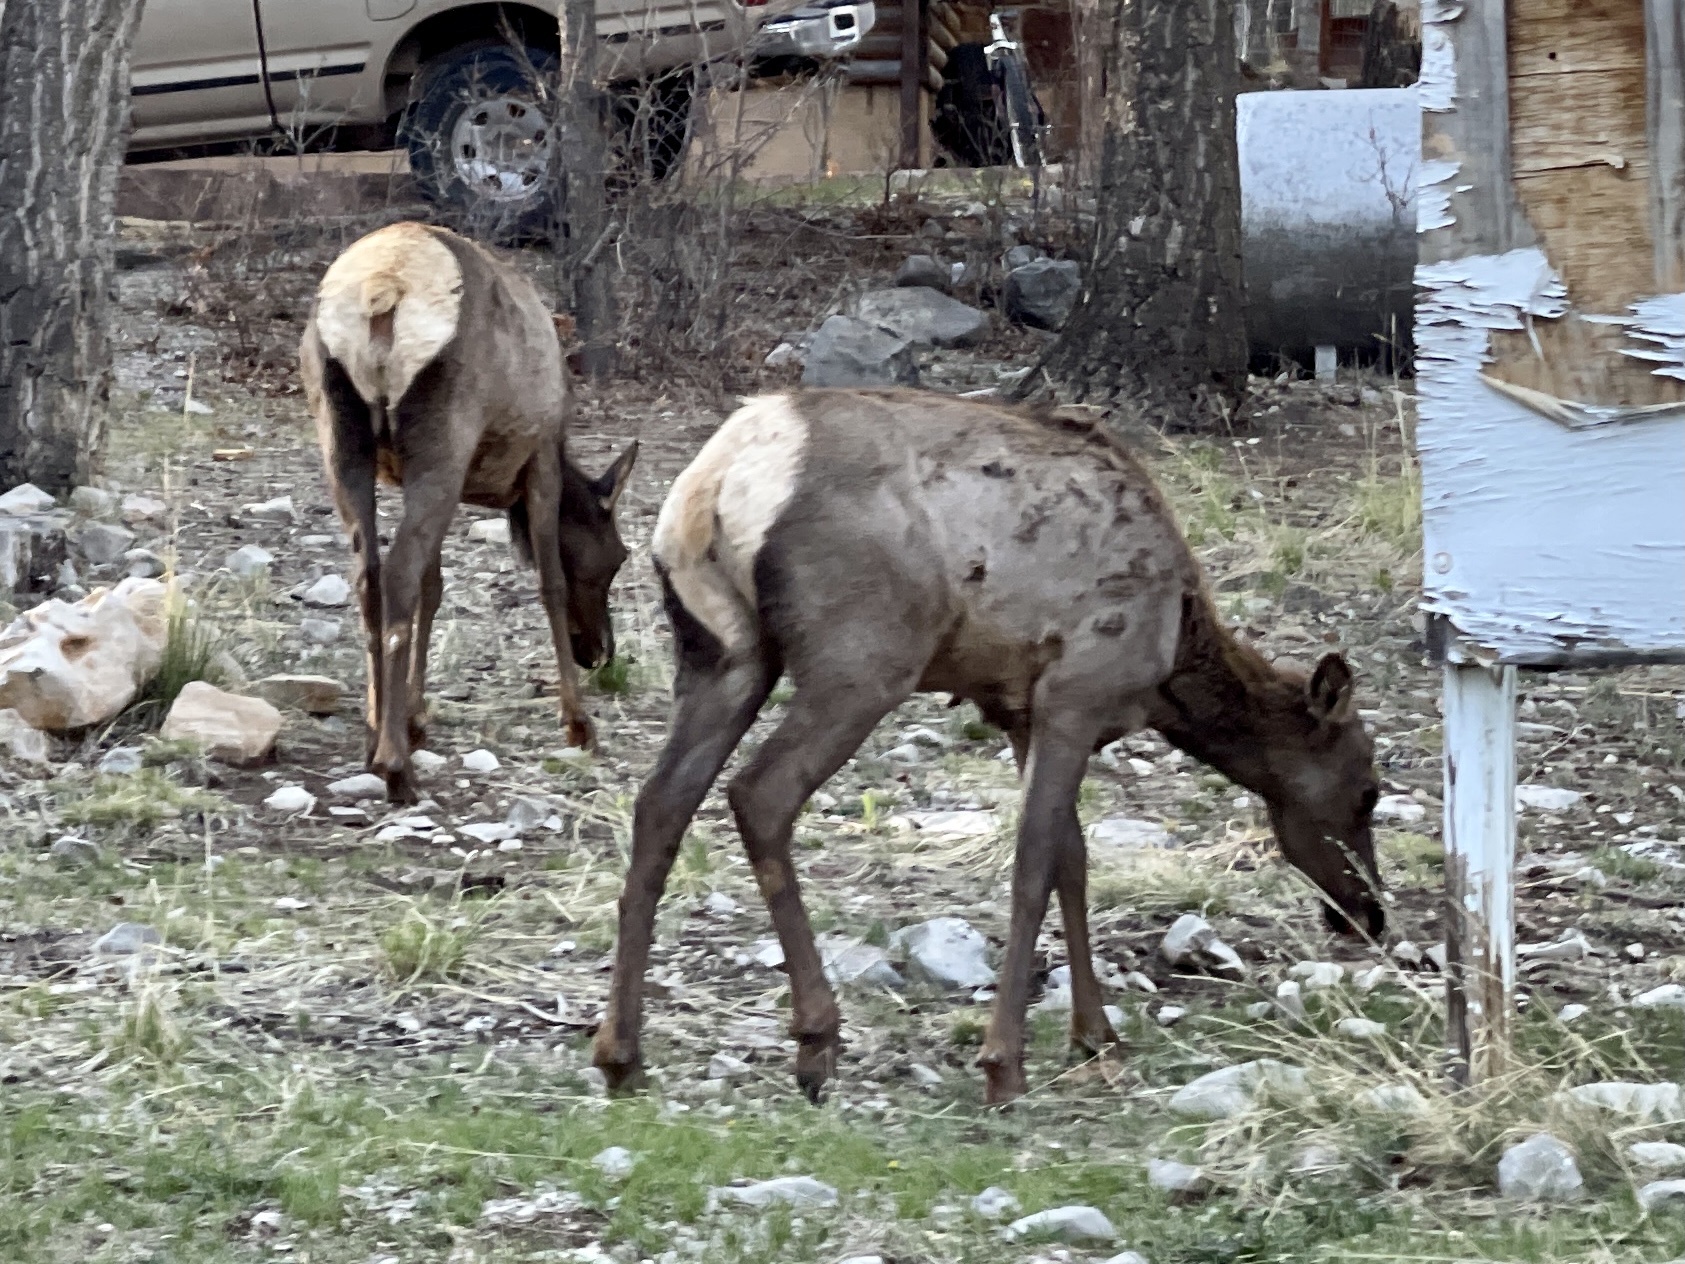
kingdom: Animalia
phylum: Chordata
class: Mammalia
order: Artiodactyla
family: Cervidae
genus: Cervus
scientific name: Cervus elaphus
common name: Red deer
